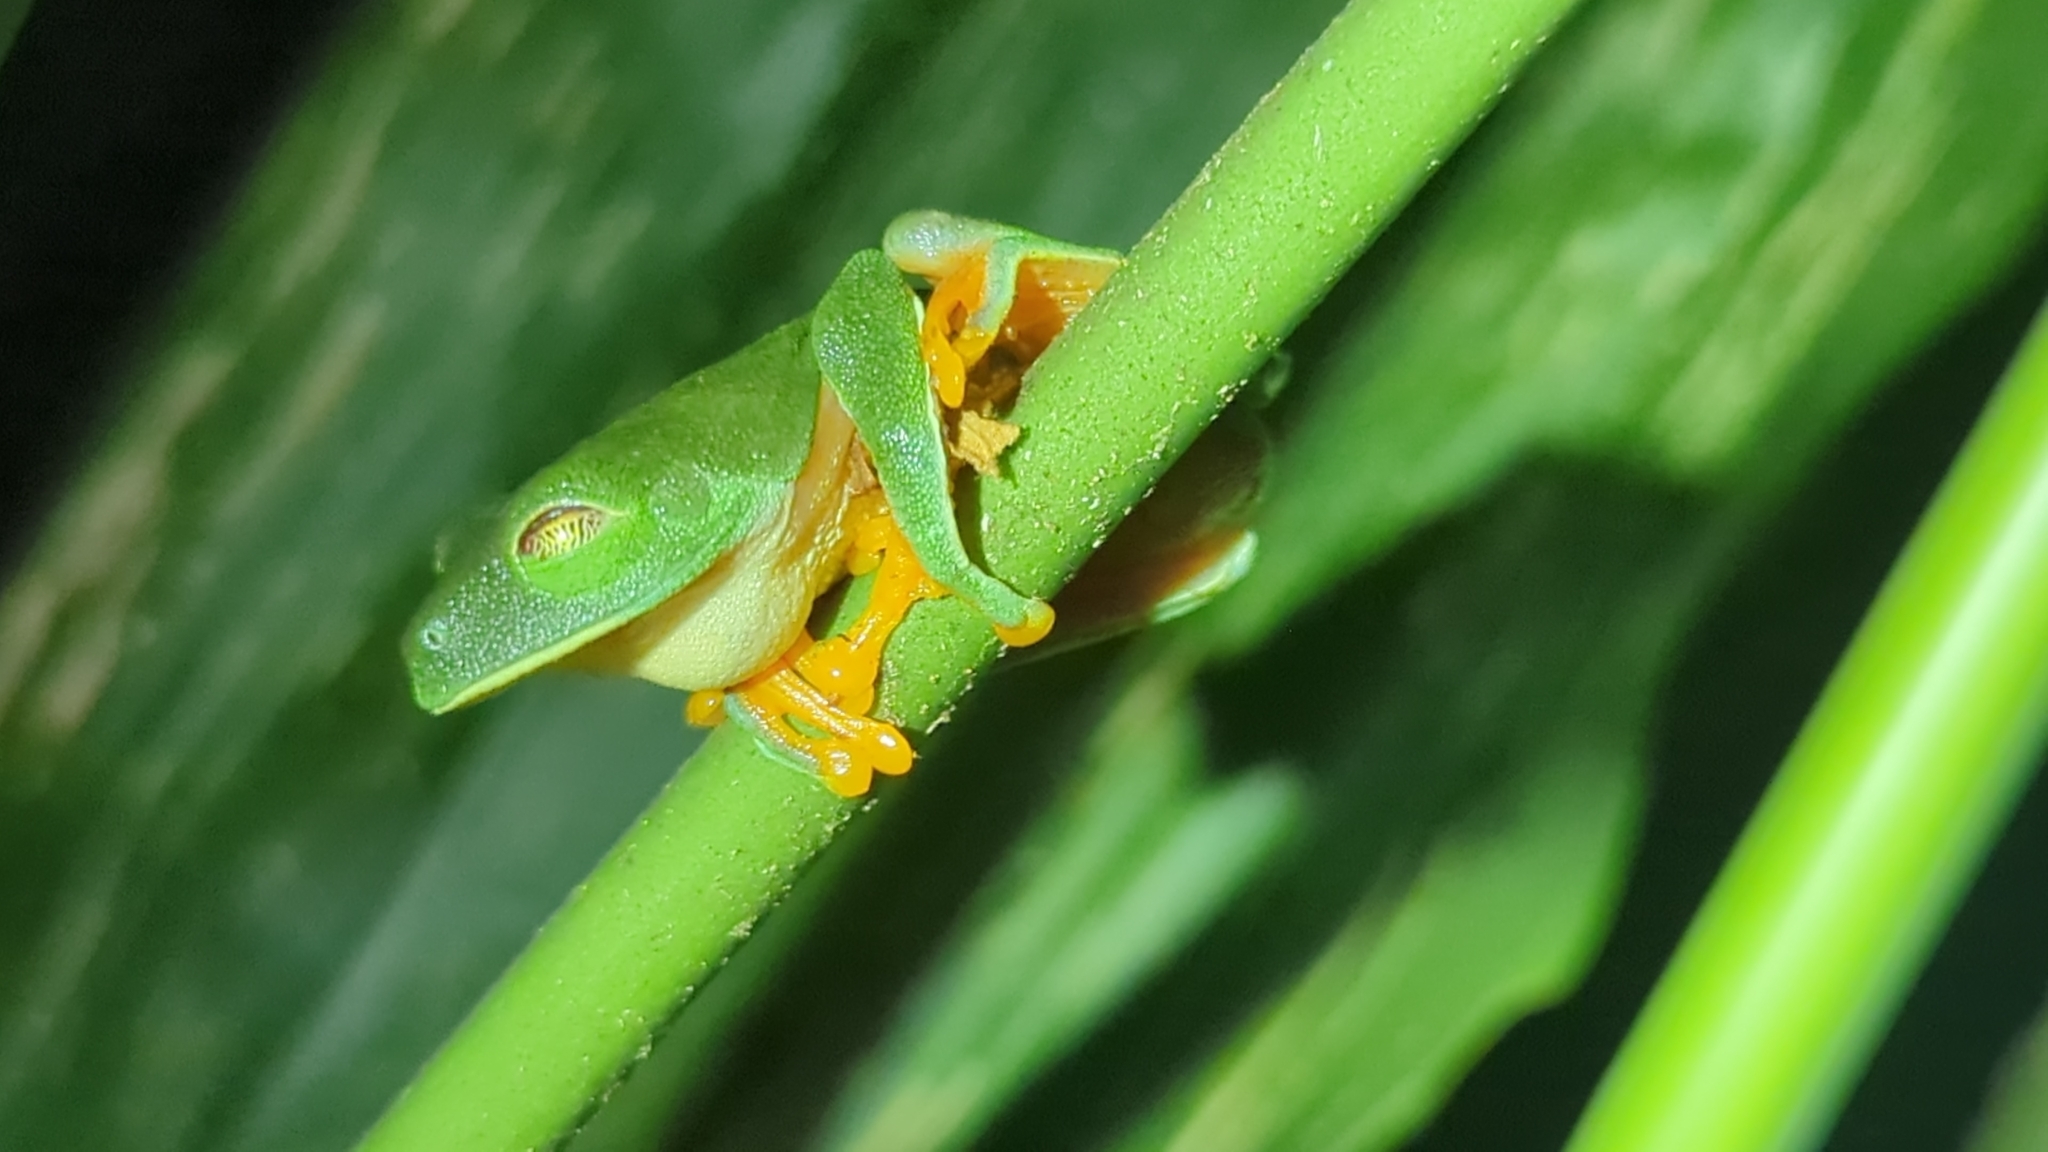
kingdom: Animalia
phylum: Chordata
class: Amphibia
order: Anura
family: Phyllomedusidae
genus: Agalychnis
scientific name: Agalychnis callidryas
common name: Red-eyed treefrog
